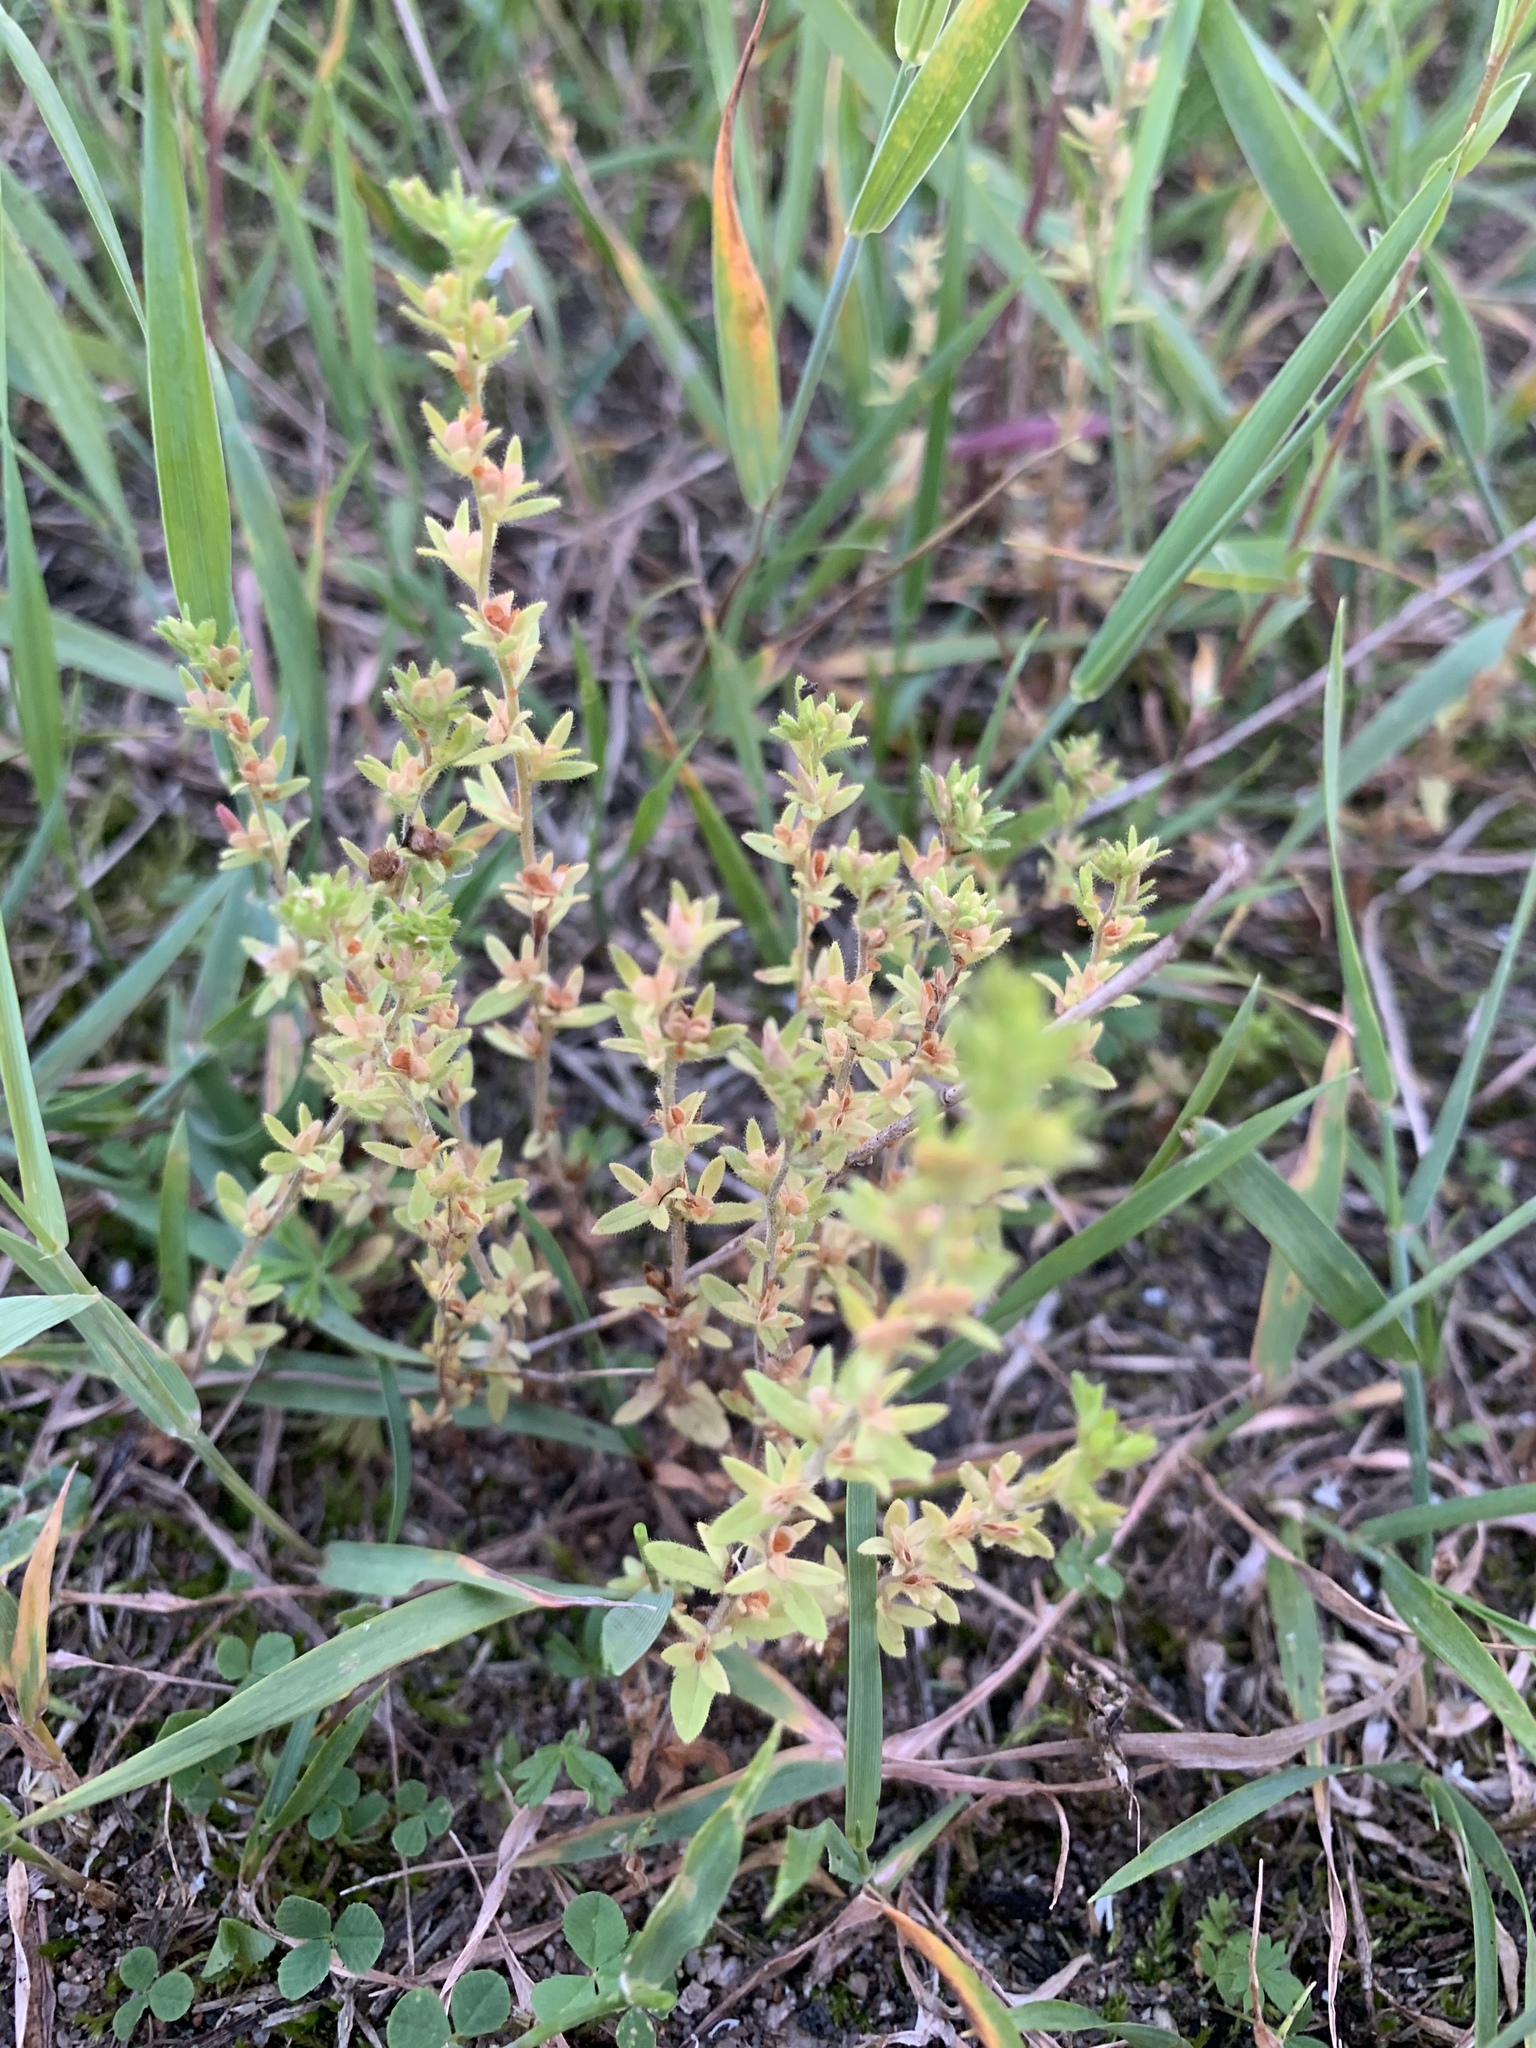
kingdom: Plantae
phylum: Tracheophyta
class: Magnoliopsida
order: Lamiales
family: Plantaginaceae
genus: Veronica
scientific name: Veronica arvensis
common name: Corn speedwell
